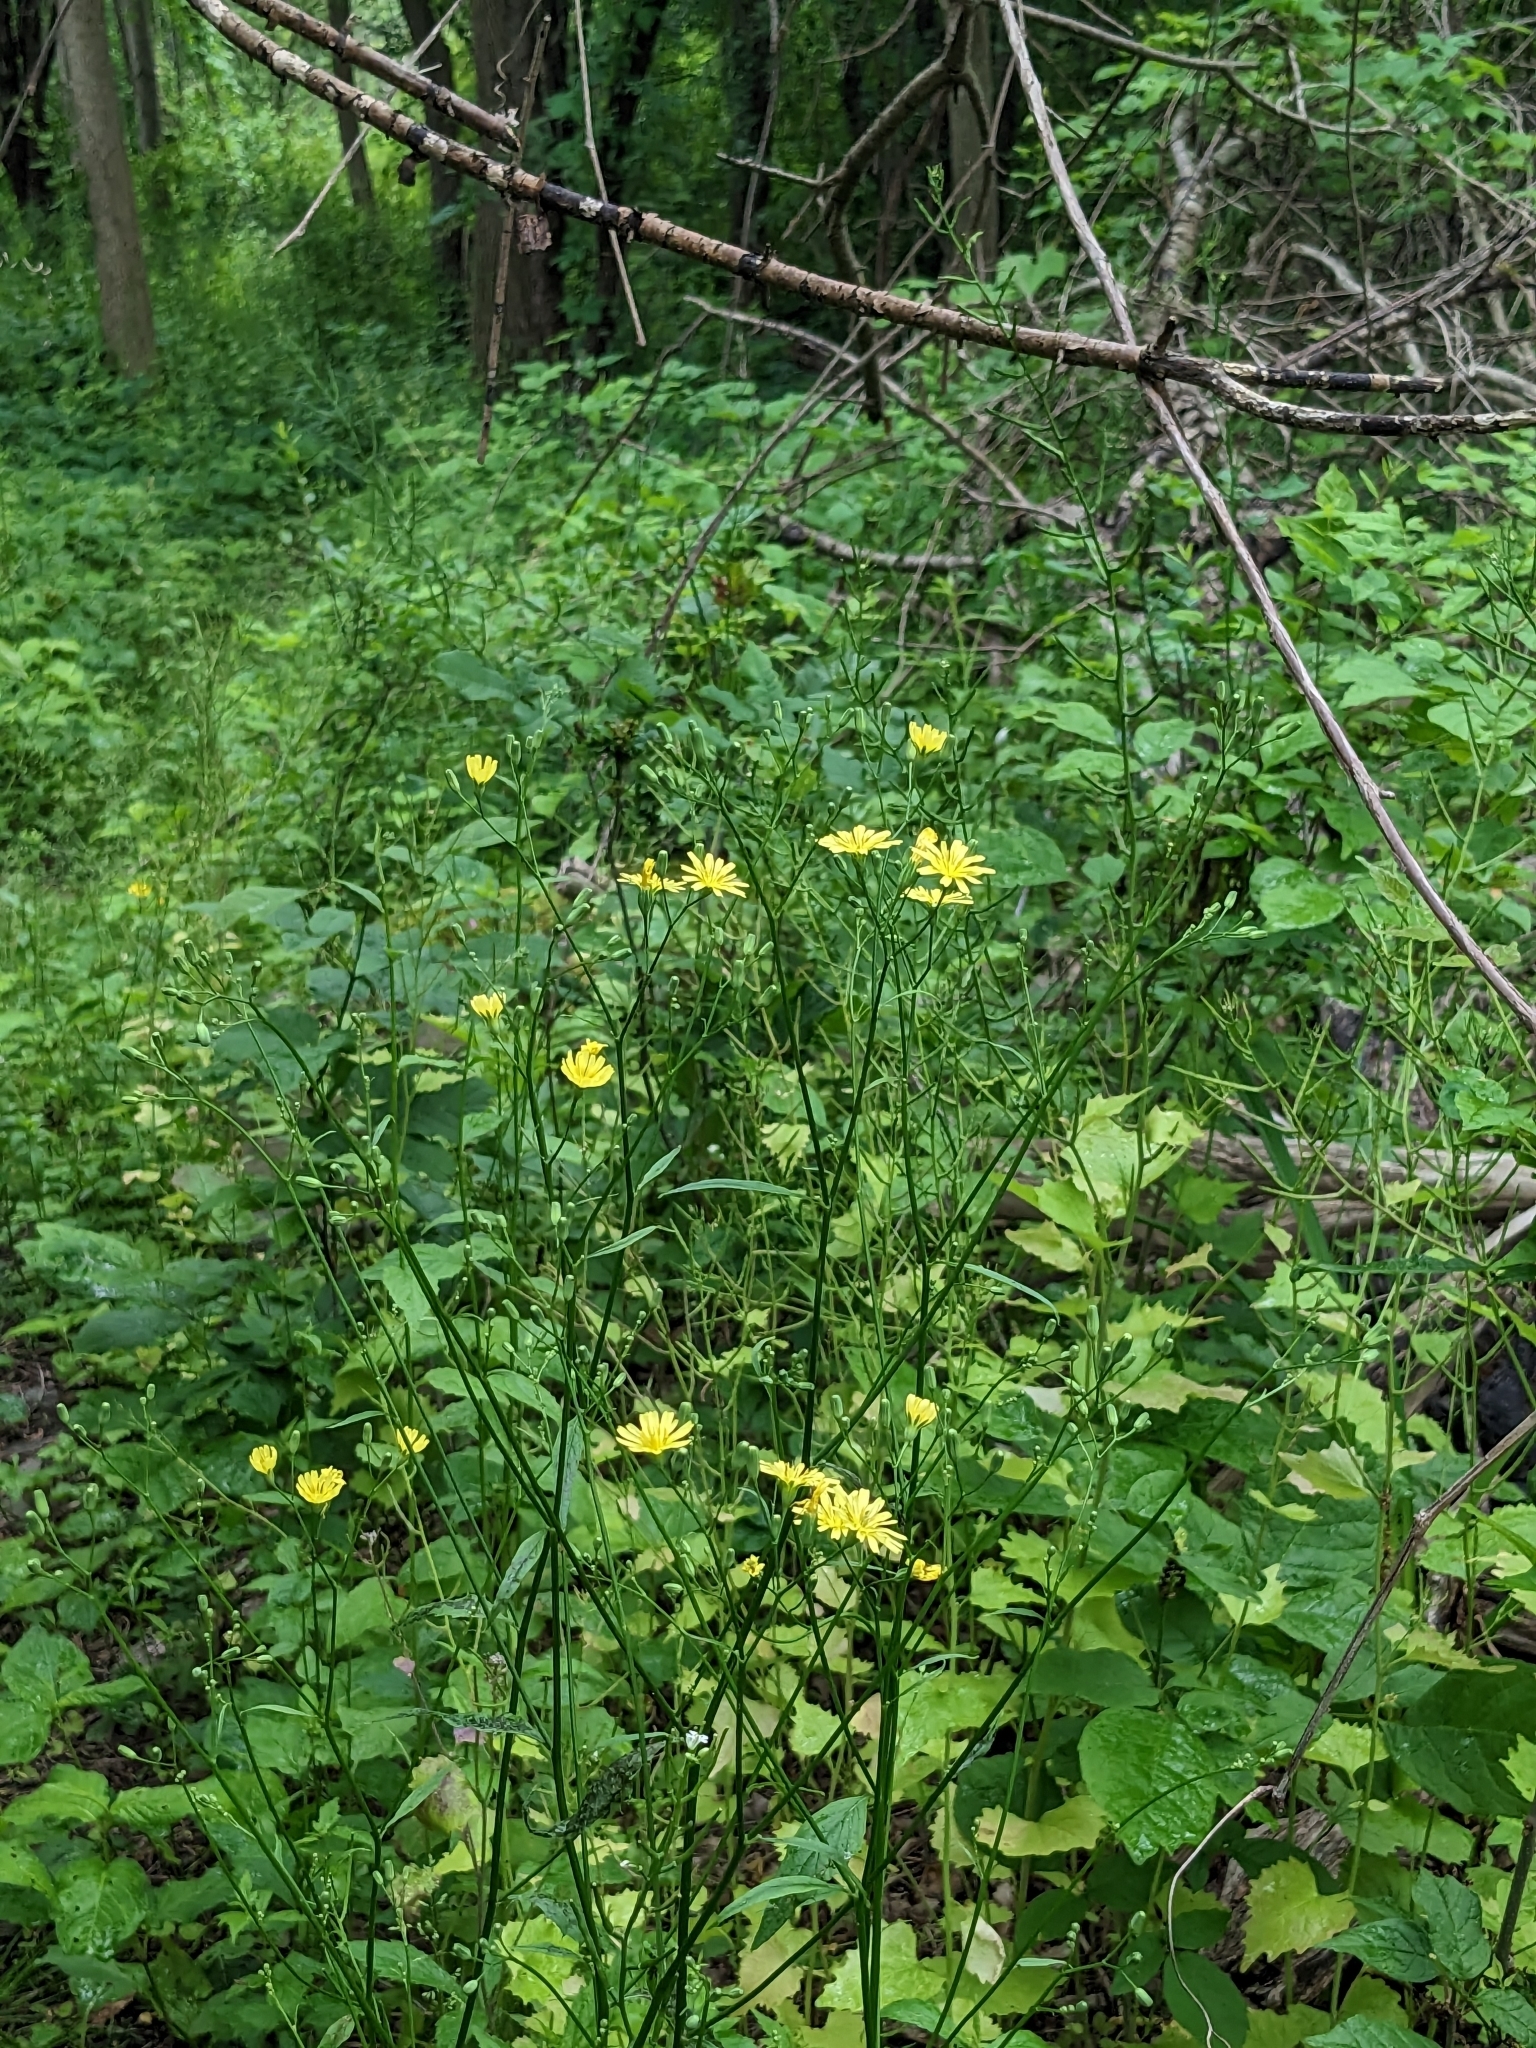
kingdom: Plantae
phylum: Tracheophyta
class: Magnoliopsida
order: Asterales
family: Asteraceae
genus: Lapsana
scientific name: Lapsana communis
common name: Nipplewort
